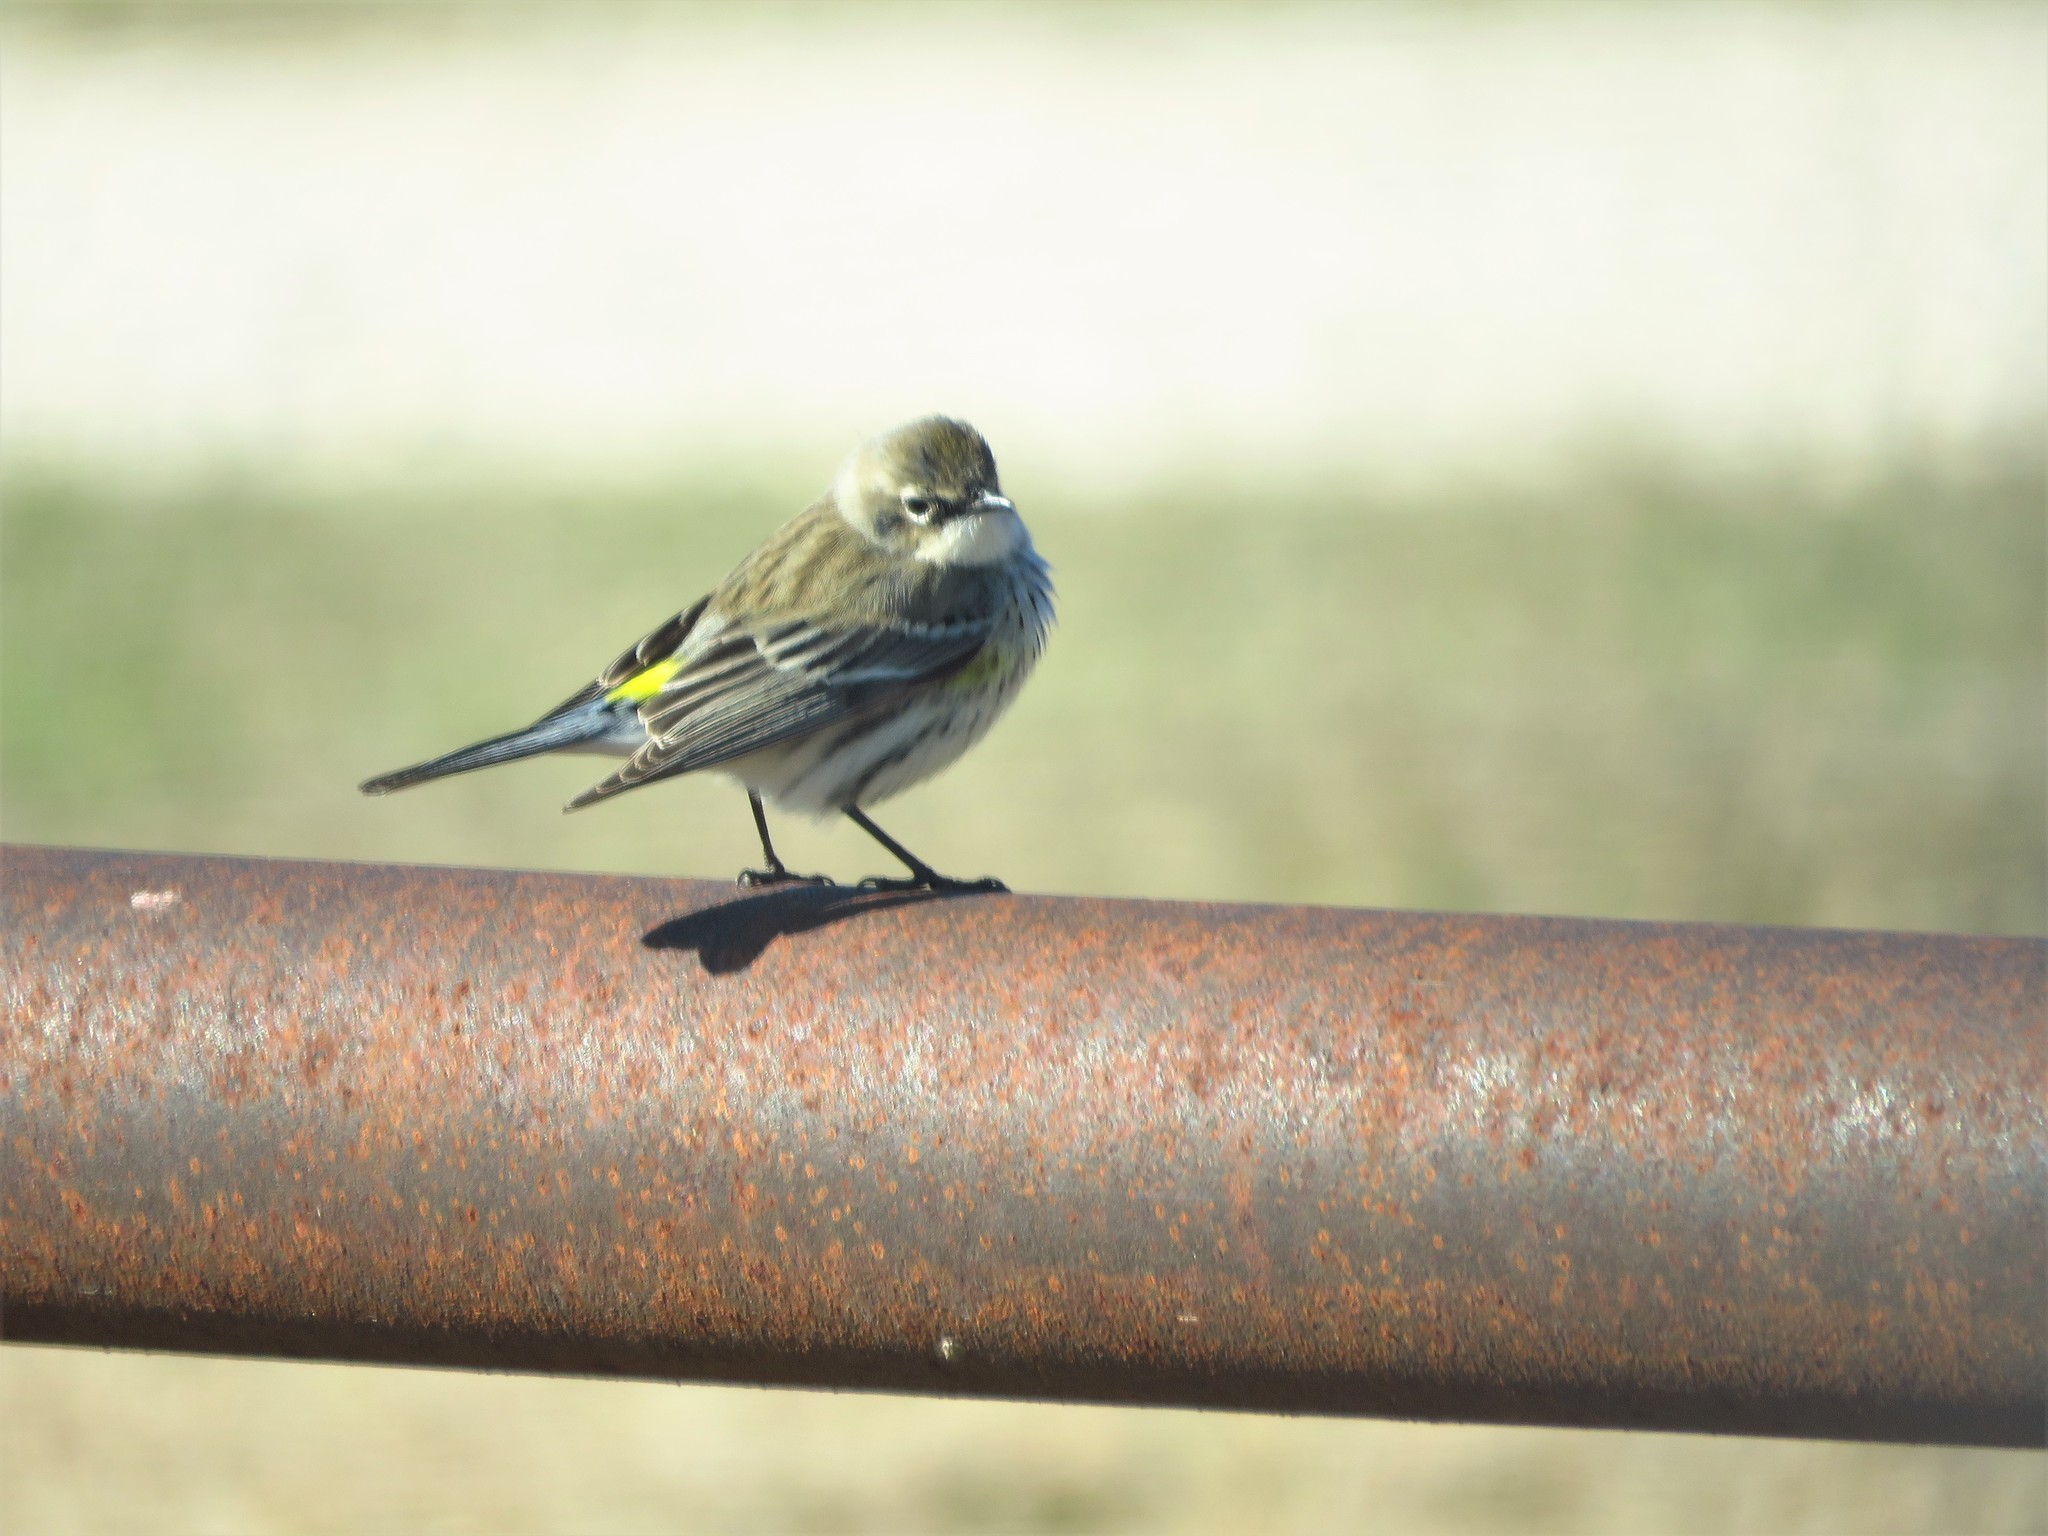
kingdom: Animalia
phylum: Chordata
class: Aves
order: Passeriformes
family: Parulidae
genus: Setophaga
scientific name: Setophaga coronata
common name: Myrtle warbler
